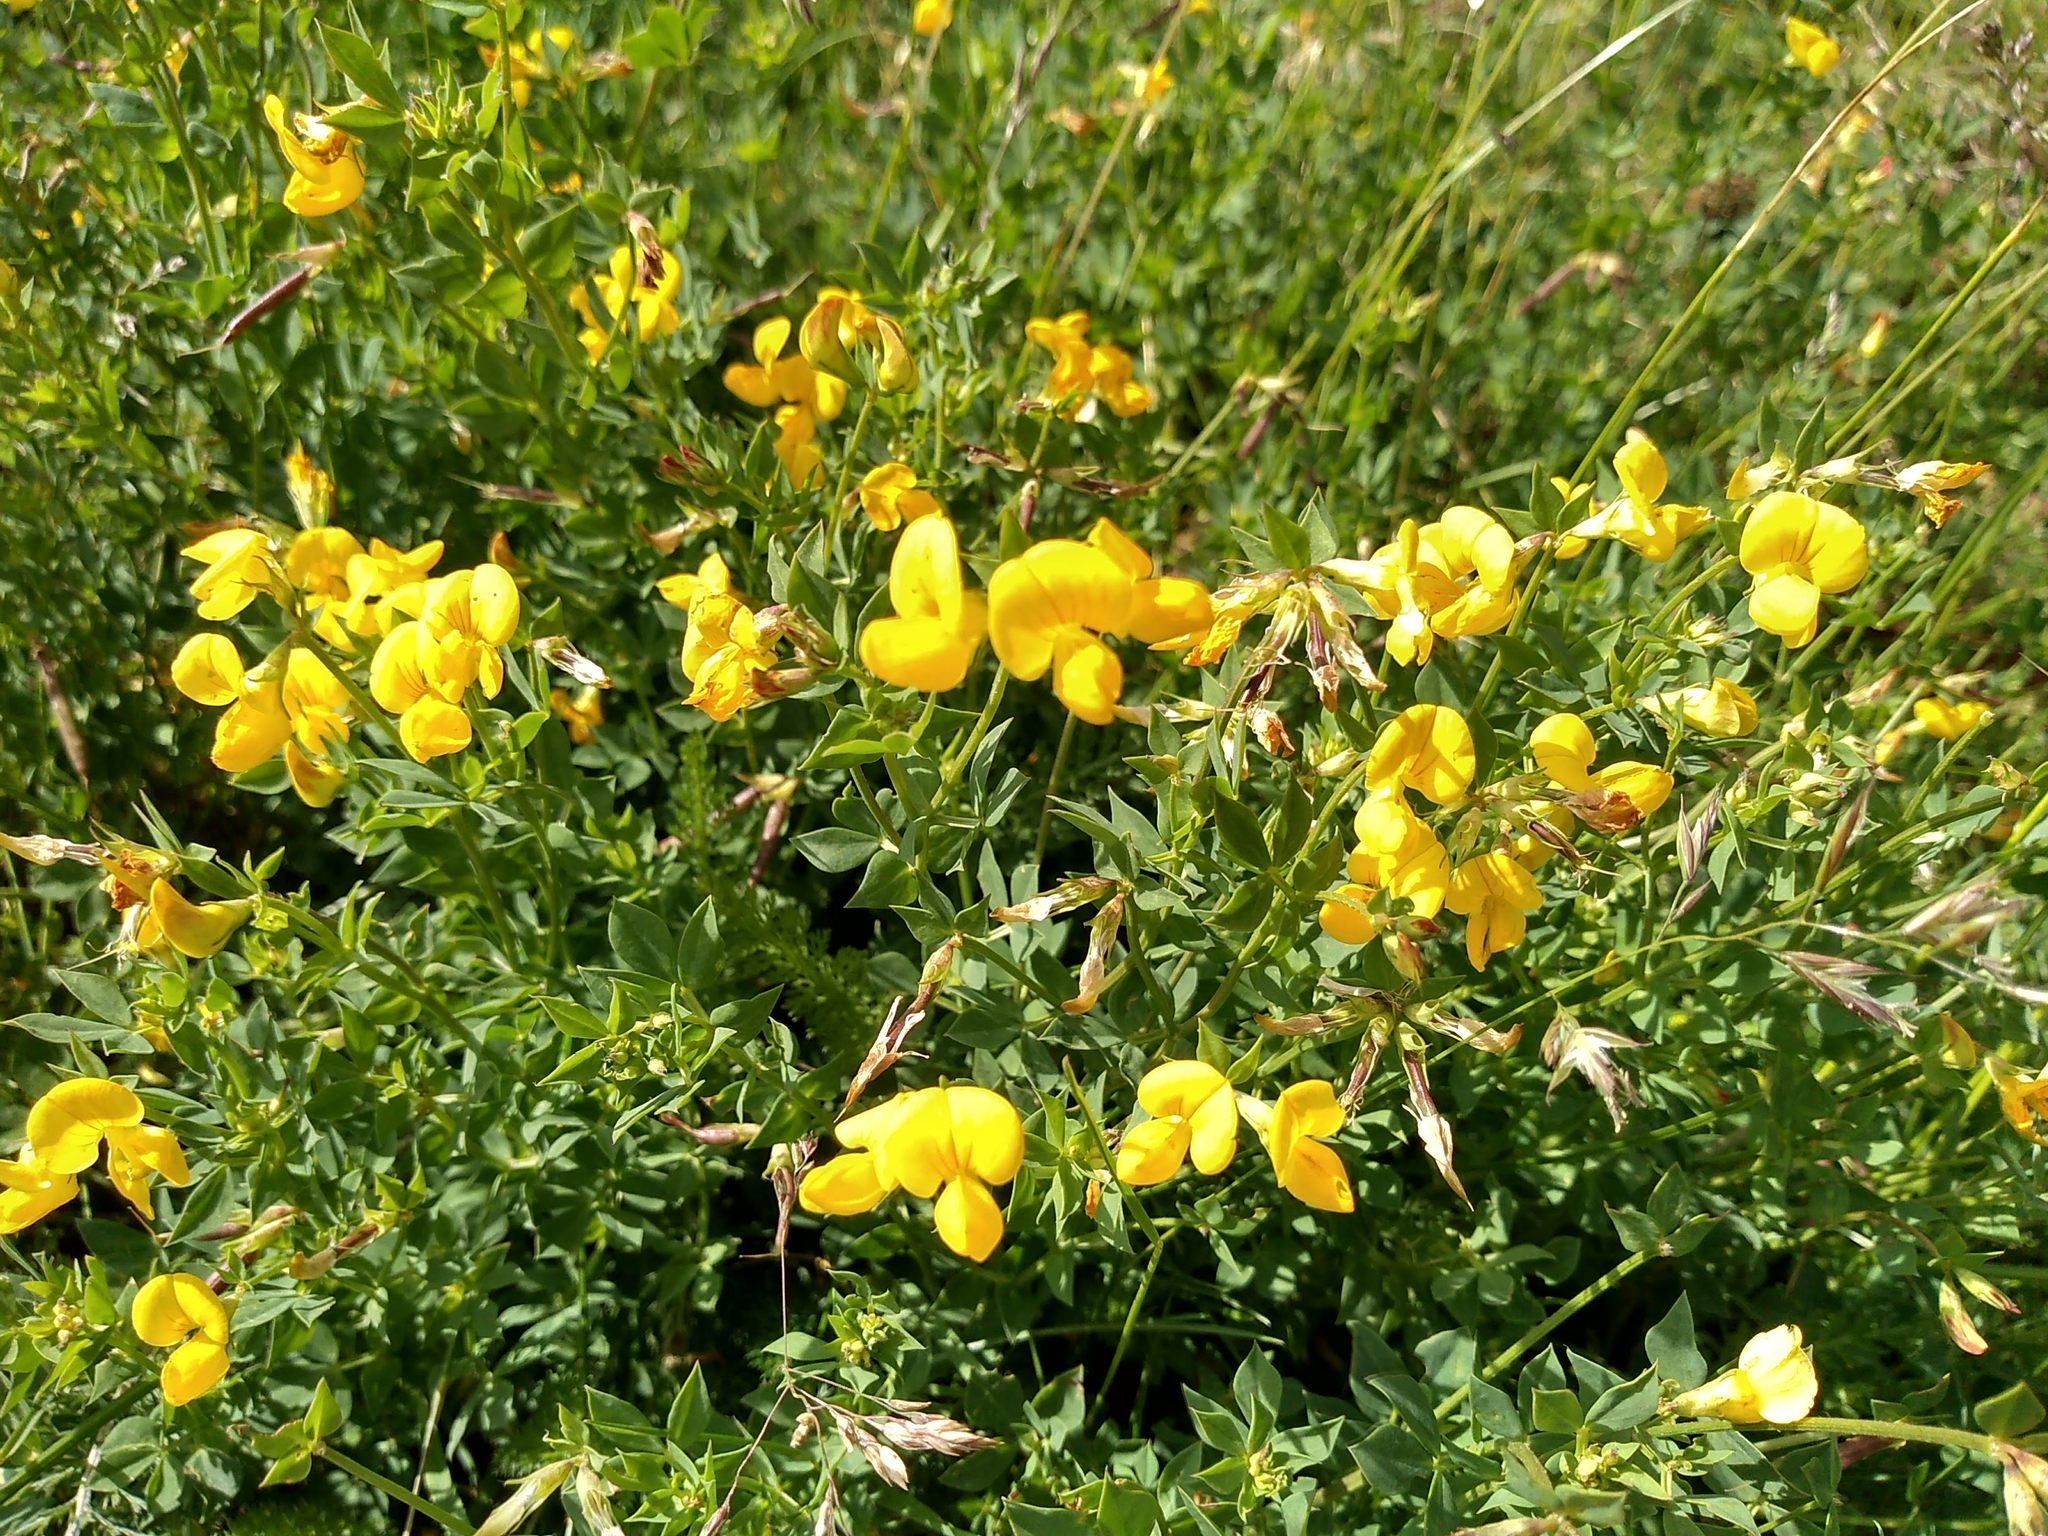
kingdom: Plantae
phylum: Tracheophyta
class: Magnoliopsida
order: Fabales
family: Fabaceae
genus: Lotus
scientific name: Lotus corniculatus
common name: Common bird's-foot-trefoil
